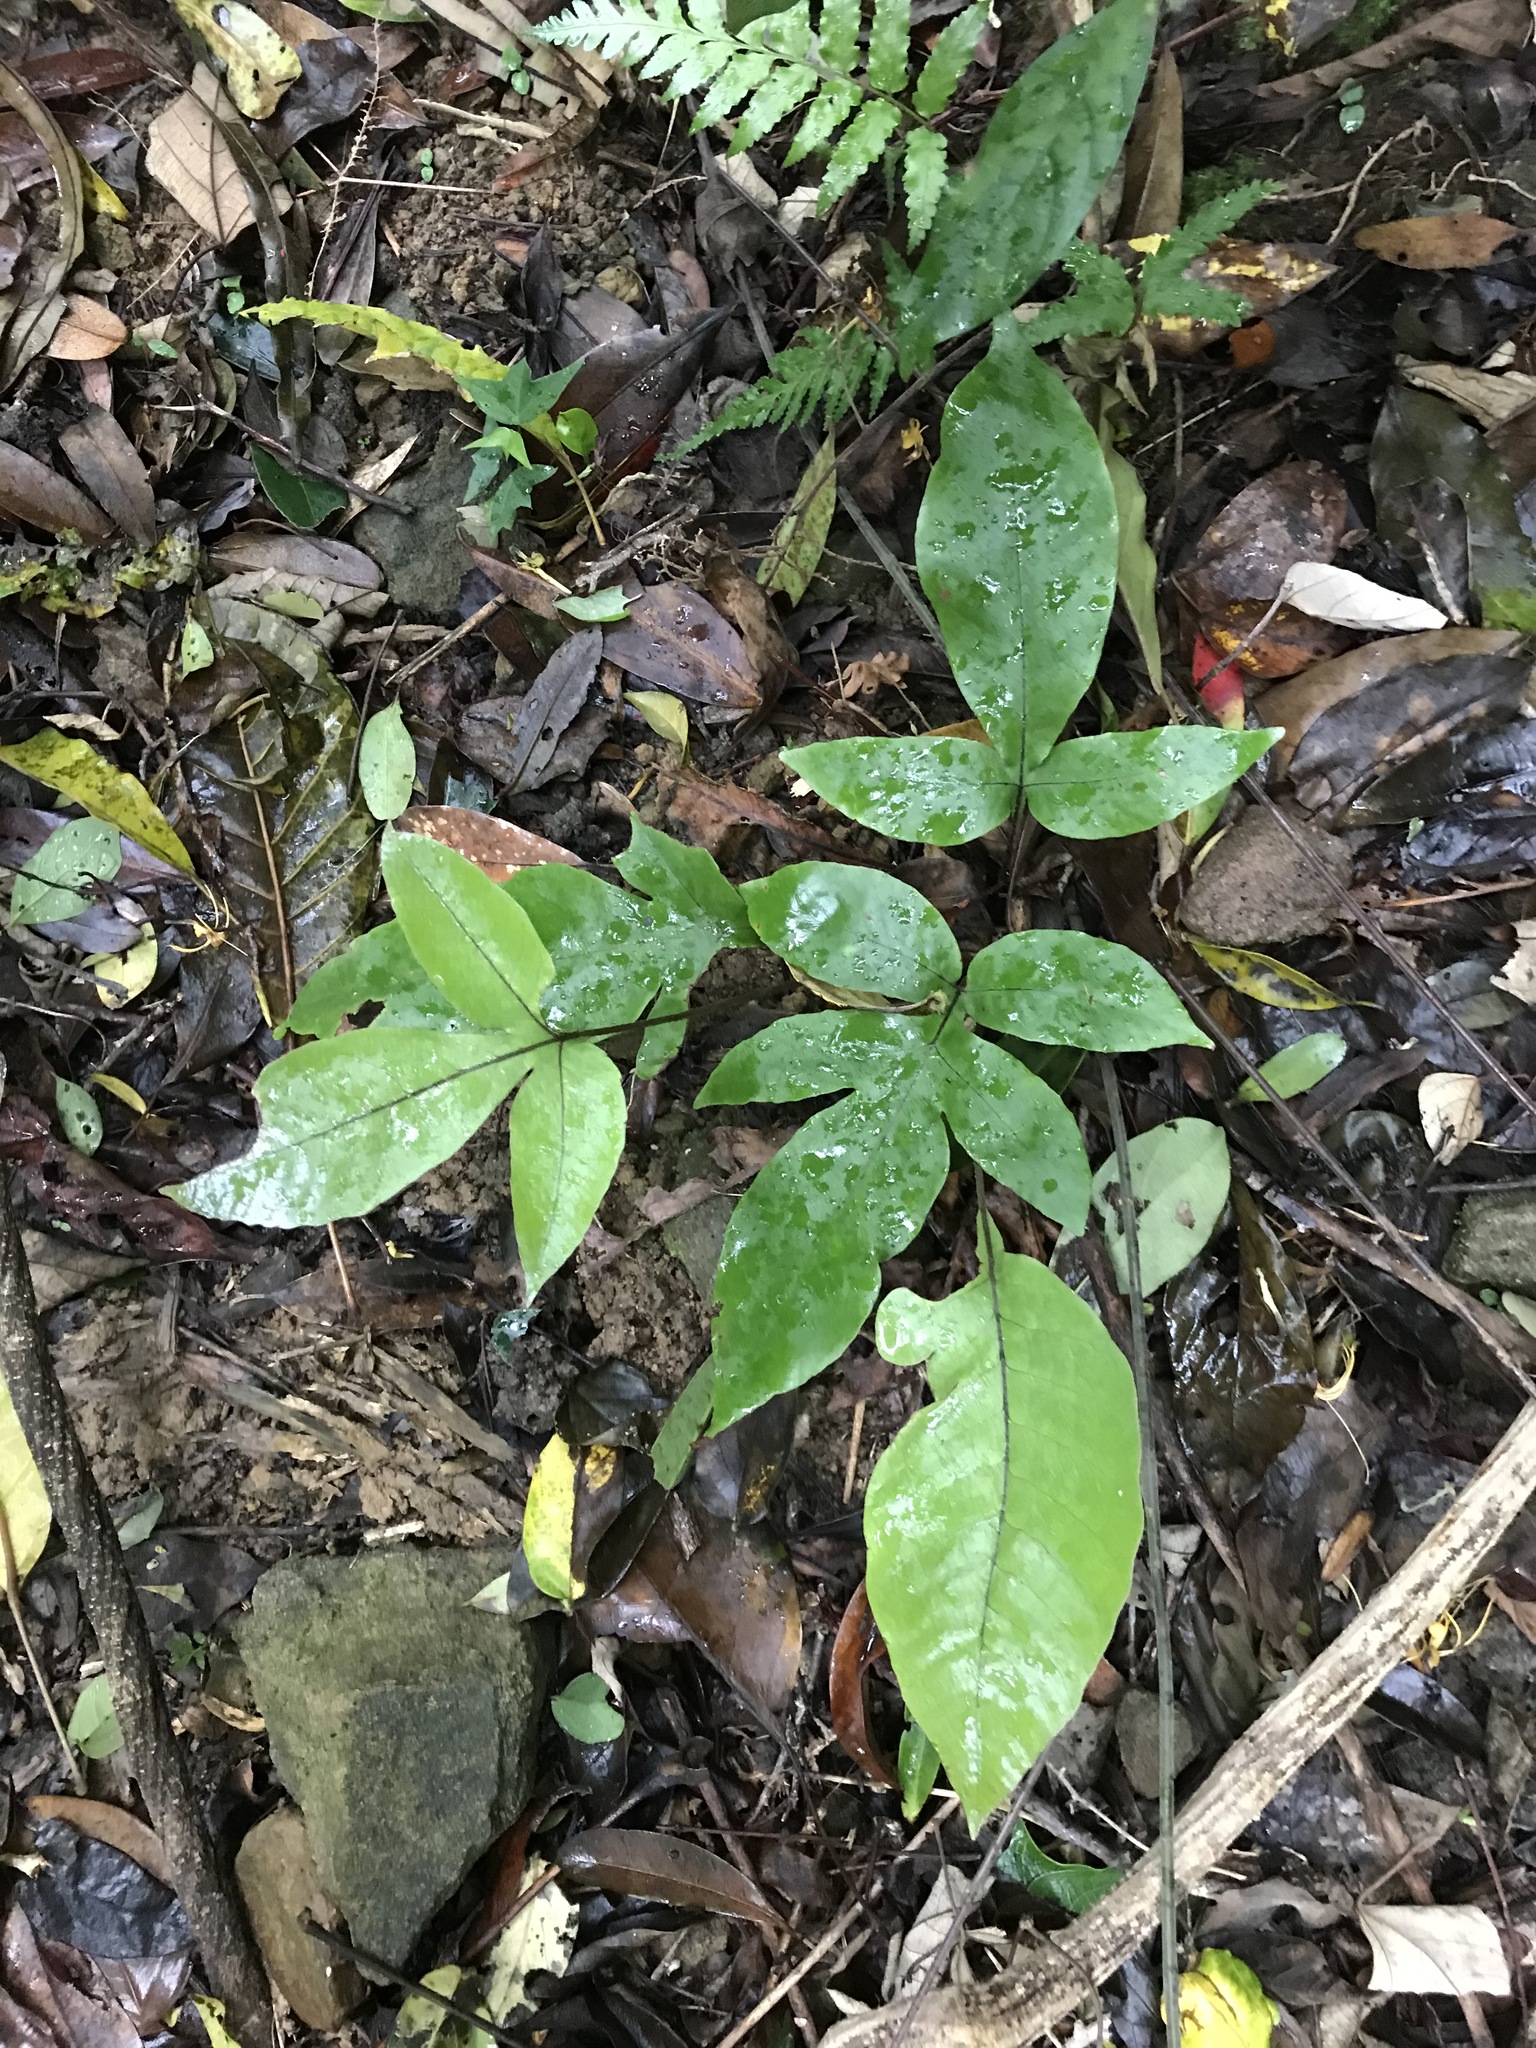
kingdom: Plantae
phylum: Tracheophyta
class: Polypodiopsida
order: Polypodiales
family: Tectariaceae
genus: Tectaria
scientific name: Tectaria harlandii
